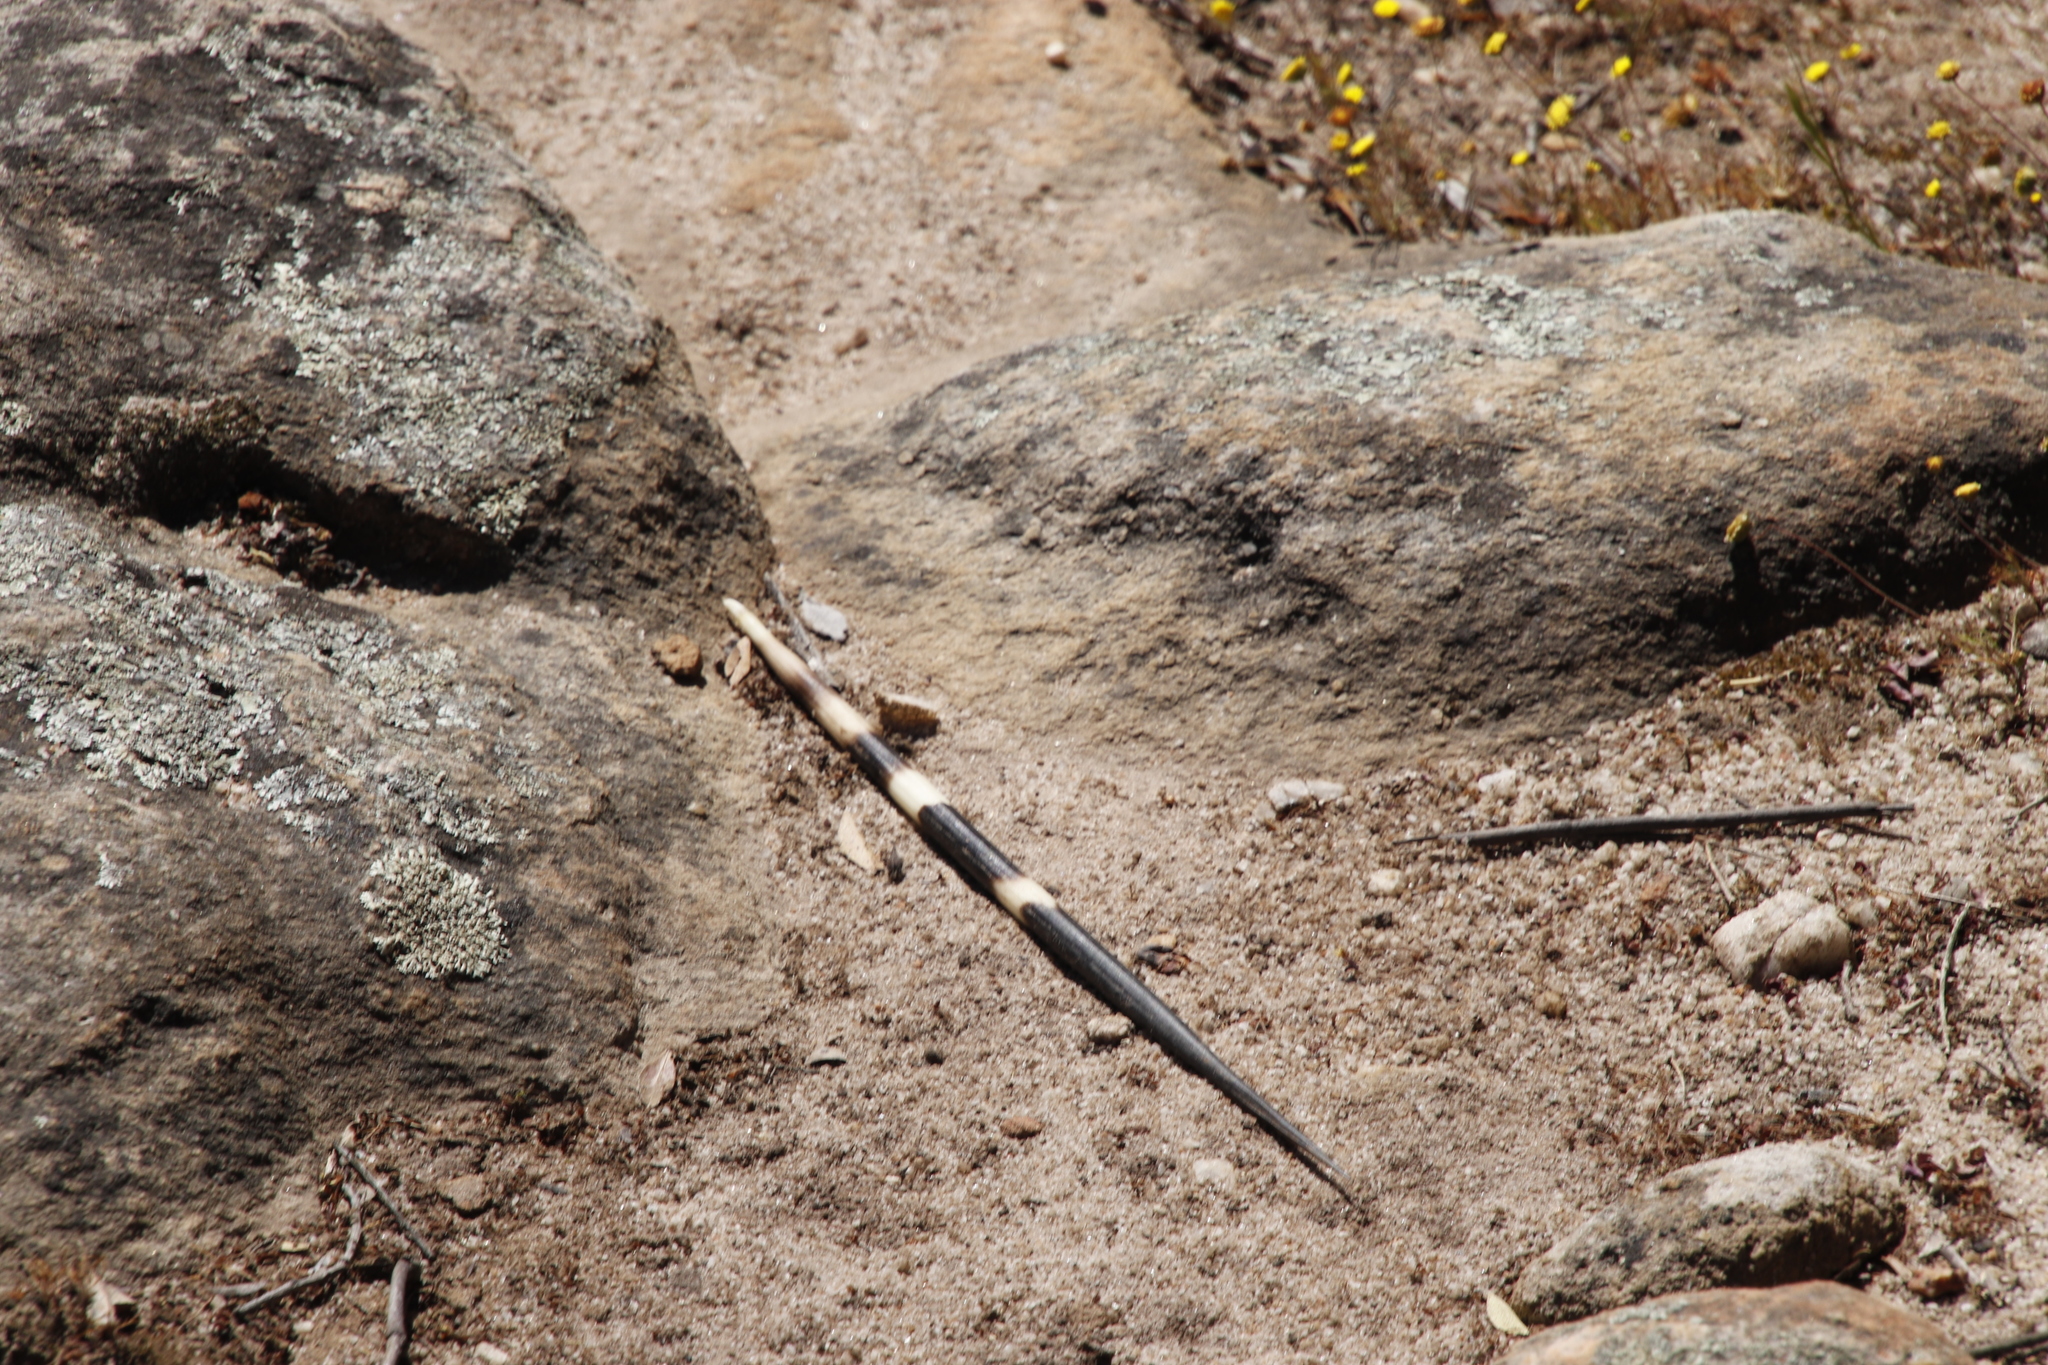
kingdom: Animalia
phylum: Chordata
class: Mammalia
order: Rodentia
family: Hystricidae
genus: Hystrix
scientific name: Hystrix africaeaustralis
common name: Cape porcupine
